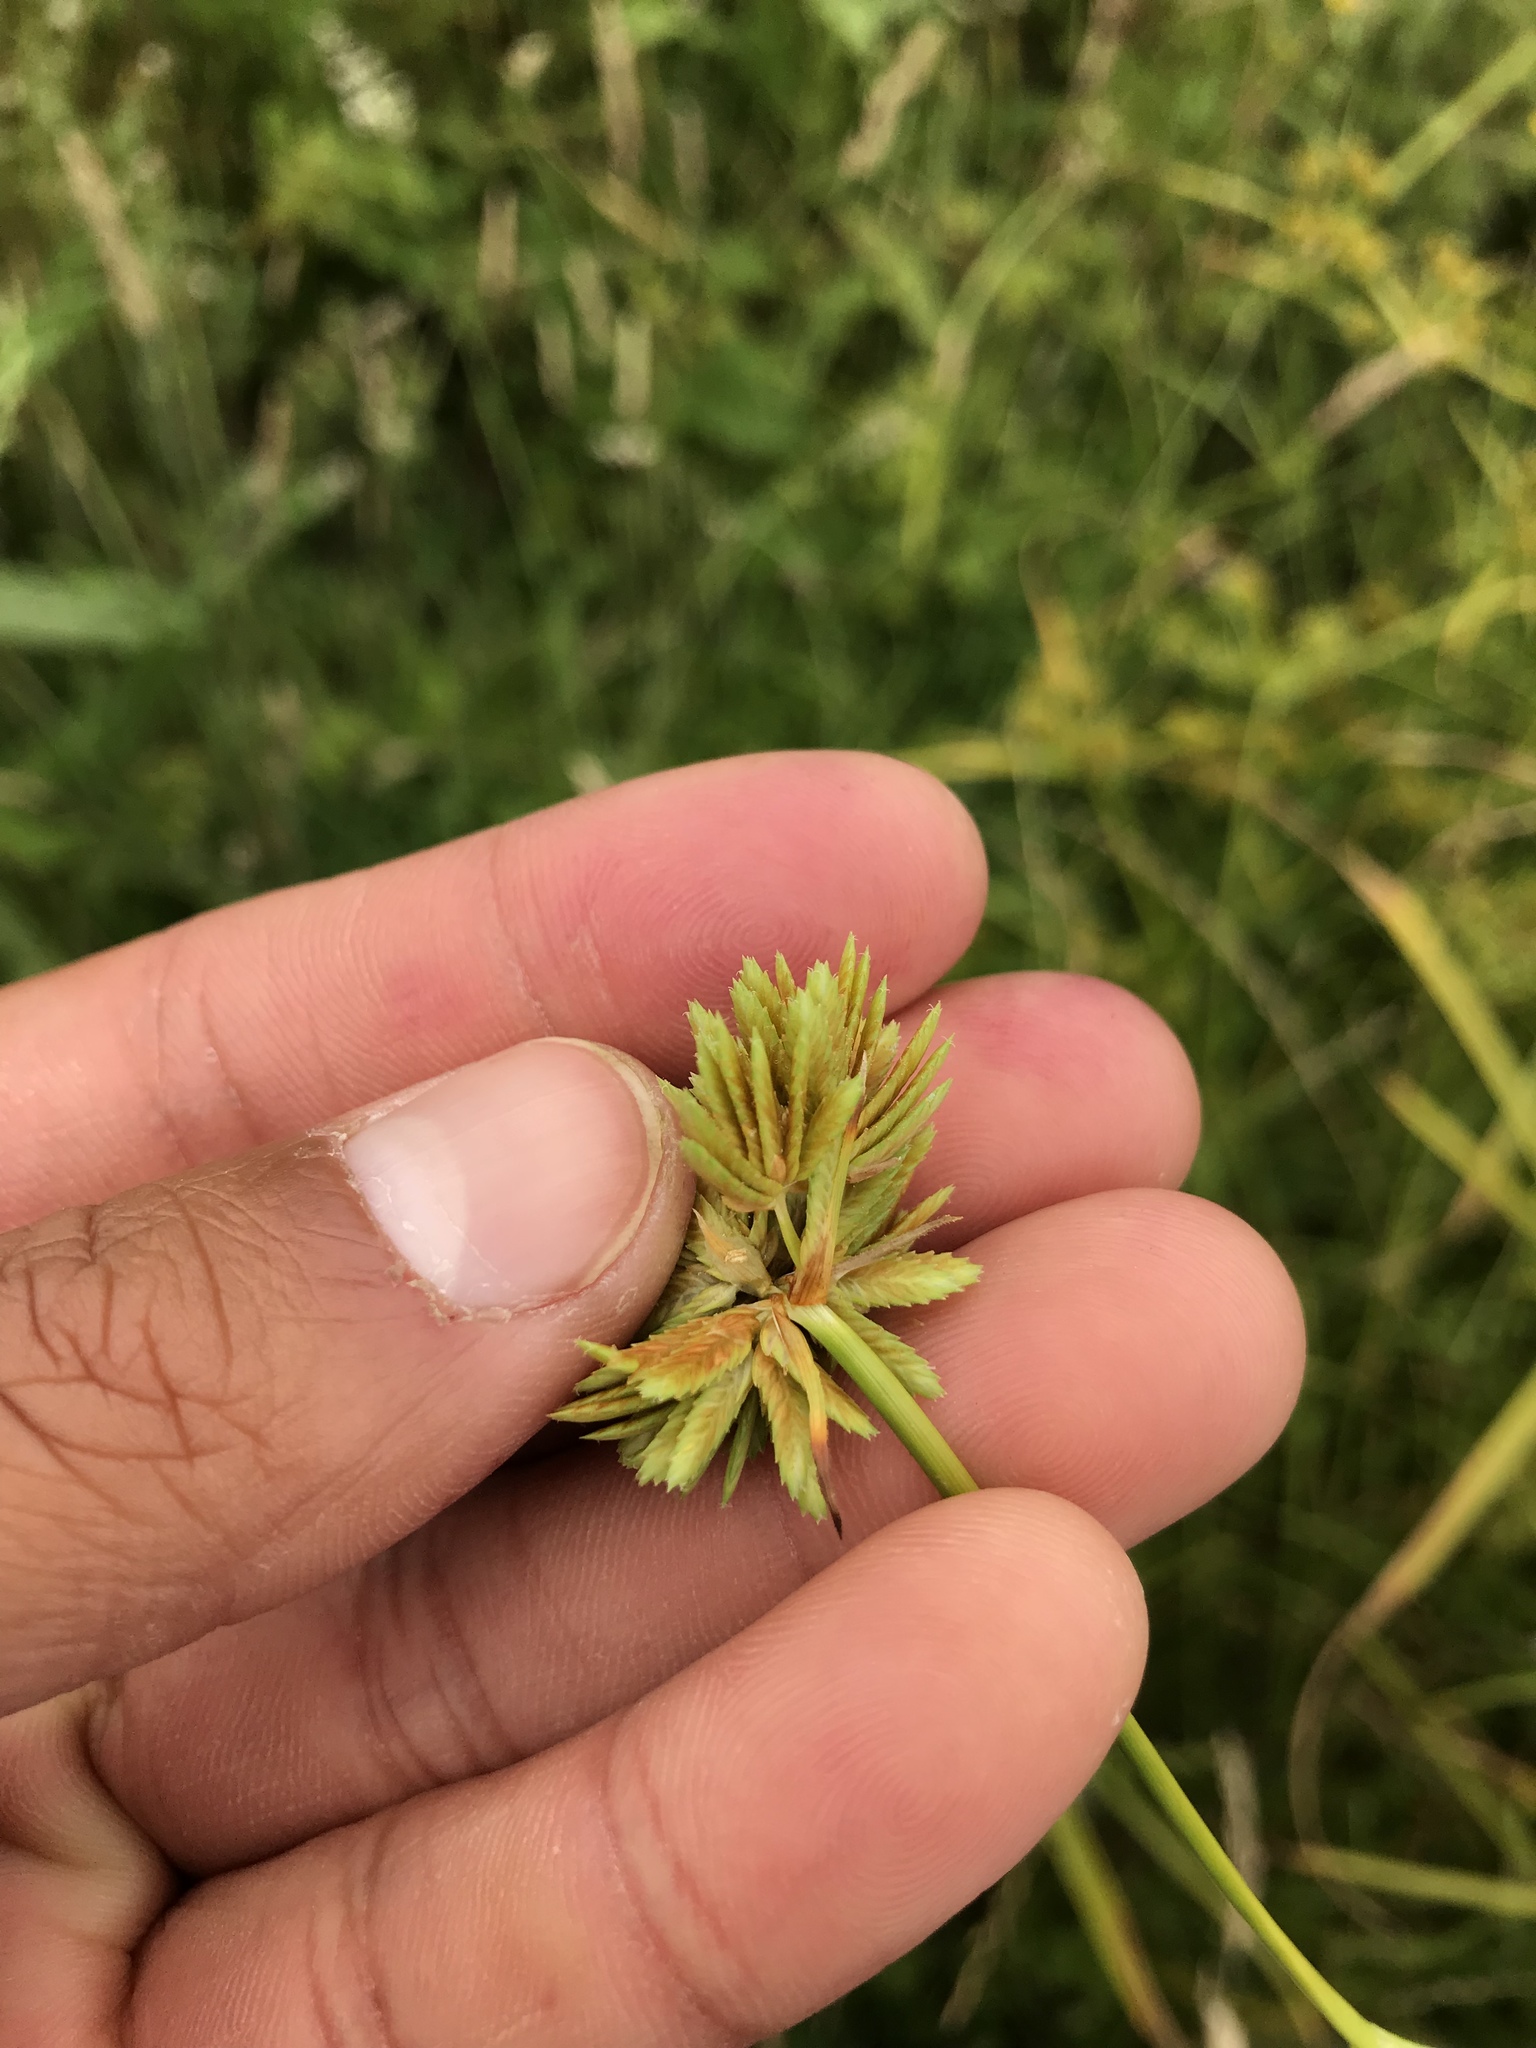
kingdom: Plantae
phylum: Tracheophyta
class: Liliopsida
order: Poales
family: Cyperaceae
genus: Cyperus
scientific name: Cyperus eragrostis
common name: Tall flatsedge
